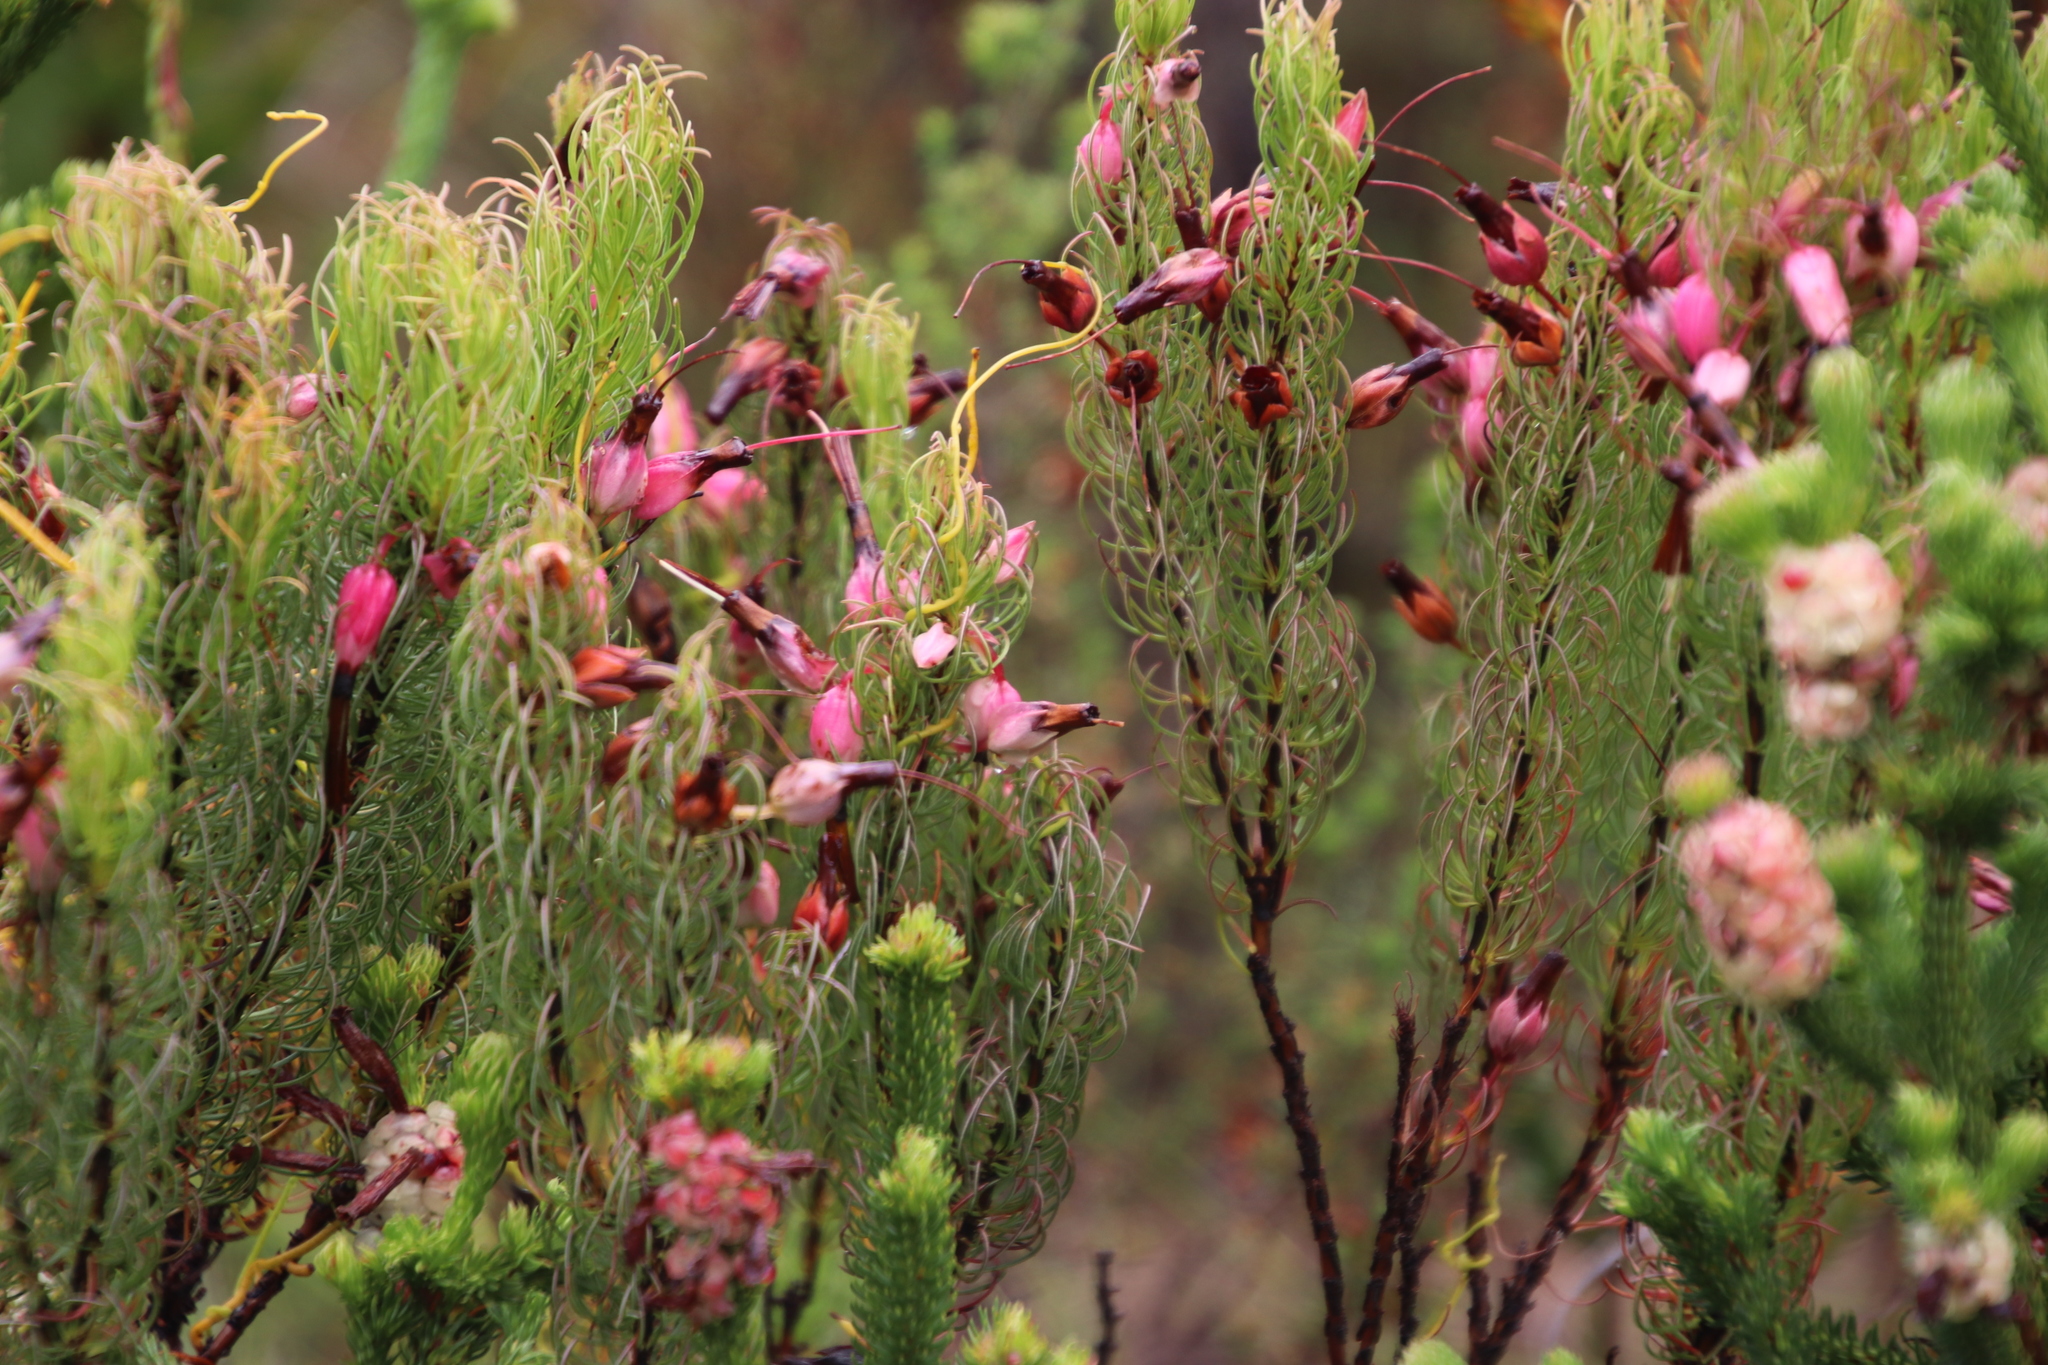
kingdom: Plantae
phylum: Tracheophyta
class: Magnoliopsida
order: Ericales
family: Ericaceae
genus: Erica
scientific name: Erica plukenetii
